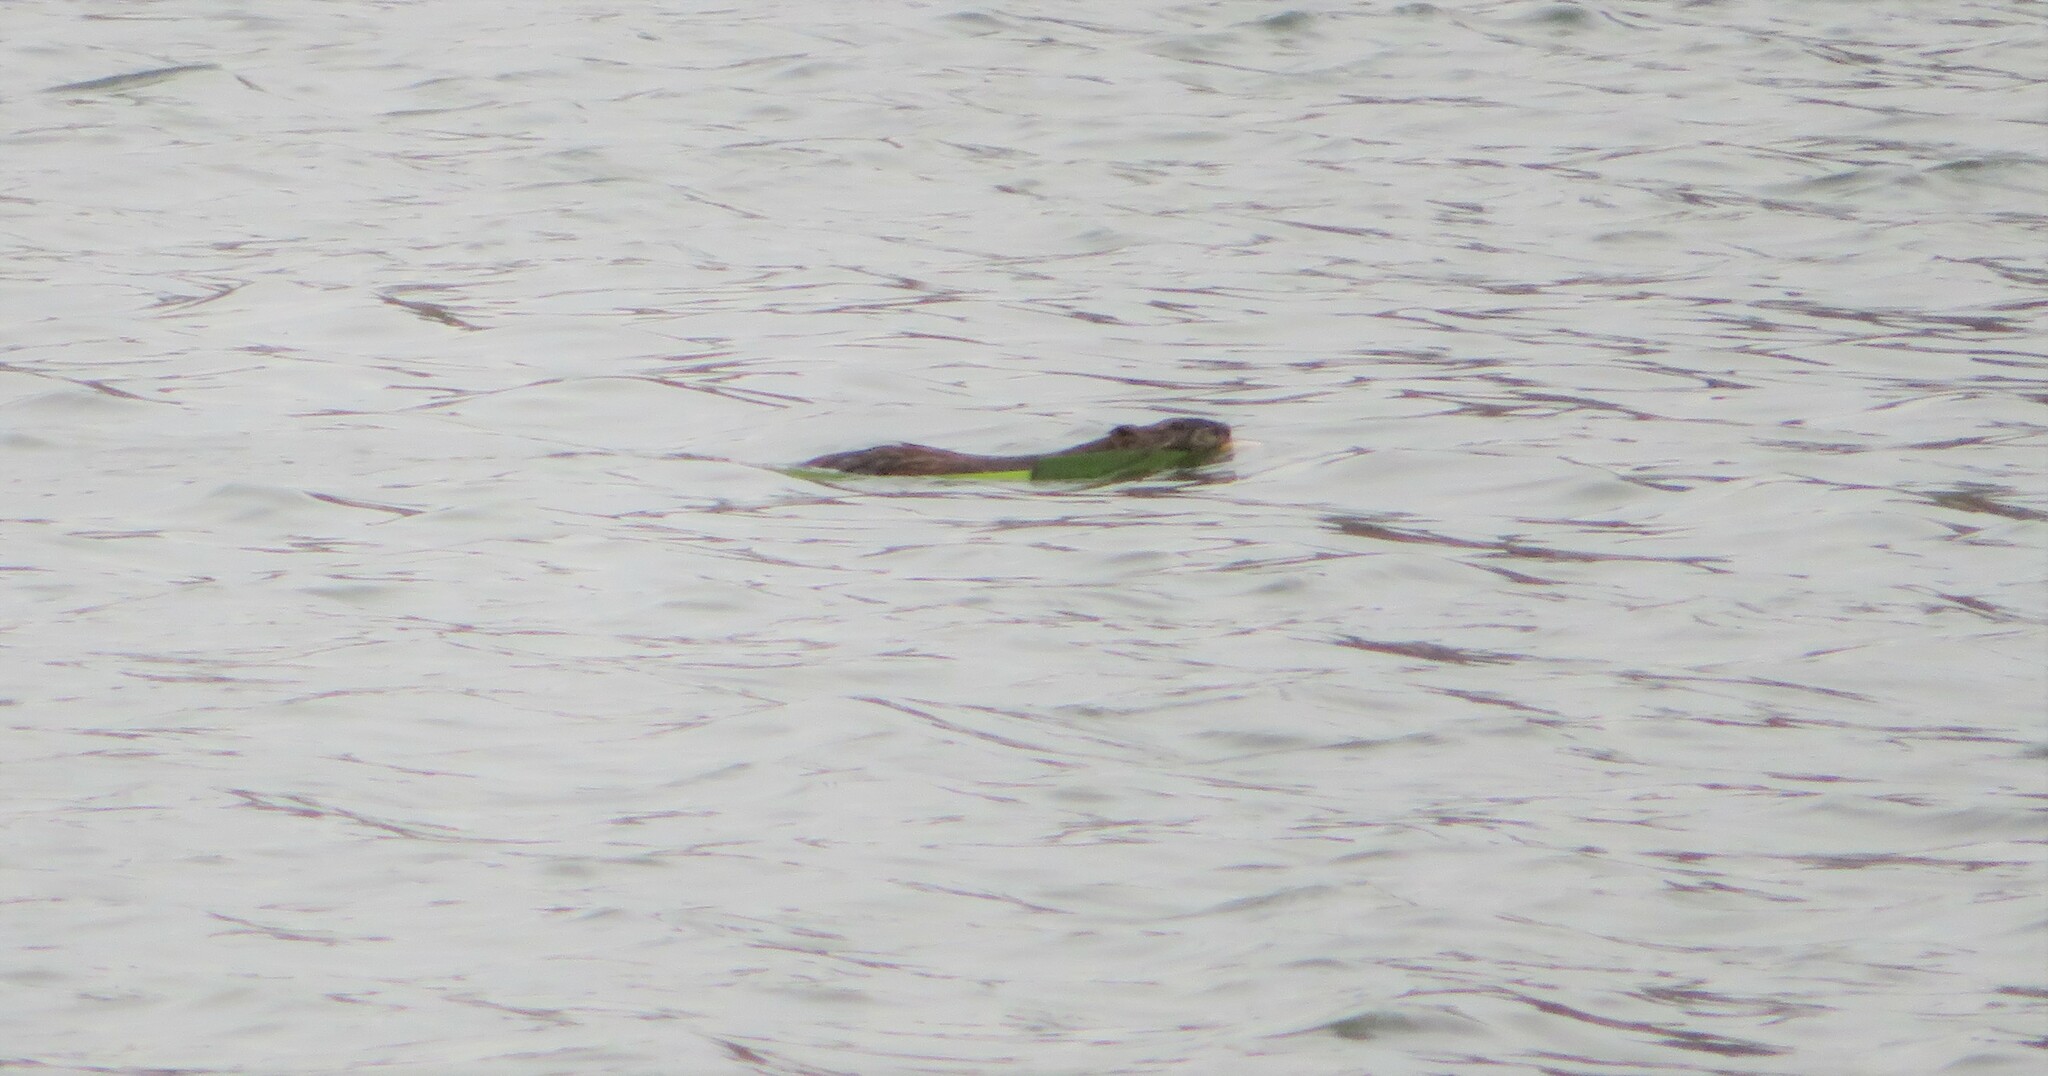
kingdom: Animalia
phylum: Chordata
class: Mammalia
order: Rodentia
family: Cricetidae
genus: Ondatra
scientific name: Ondatra zibethicus
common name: Muskrat
